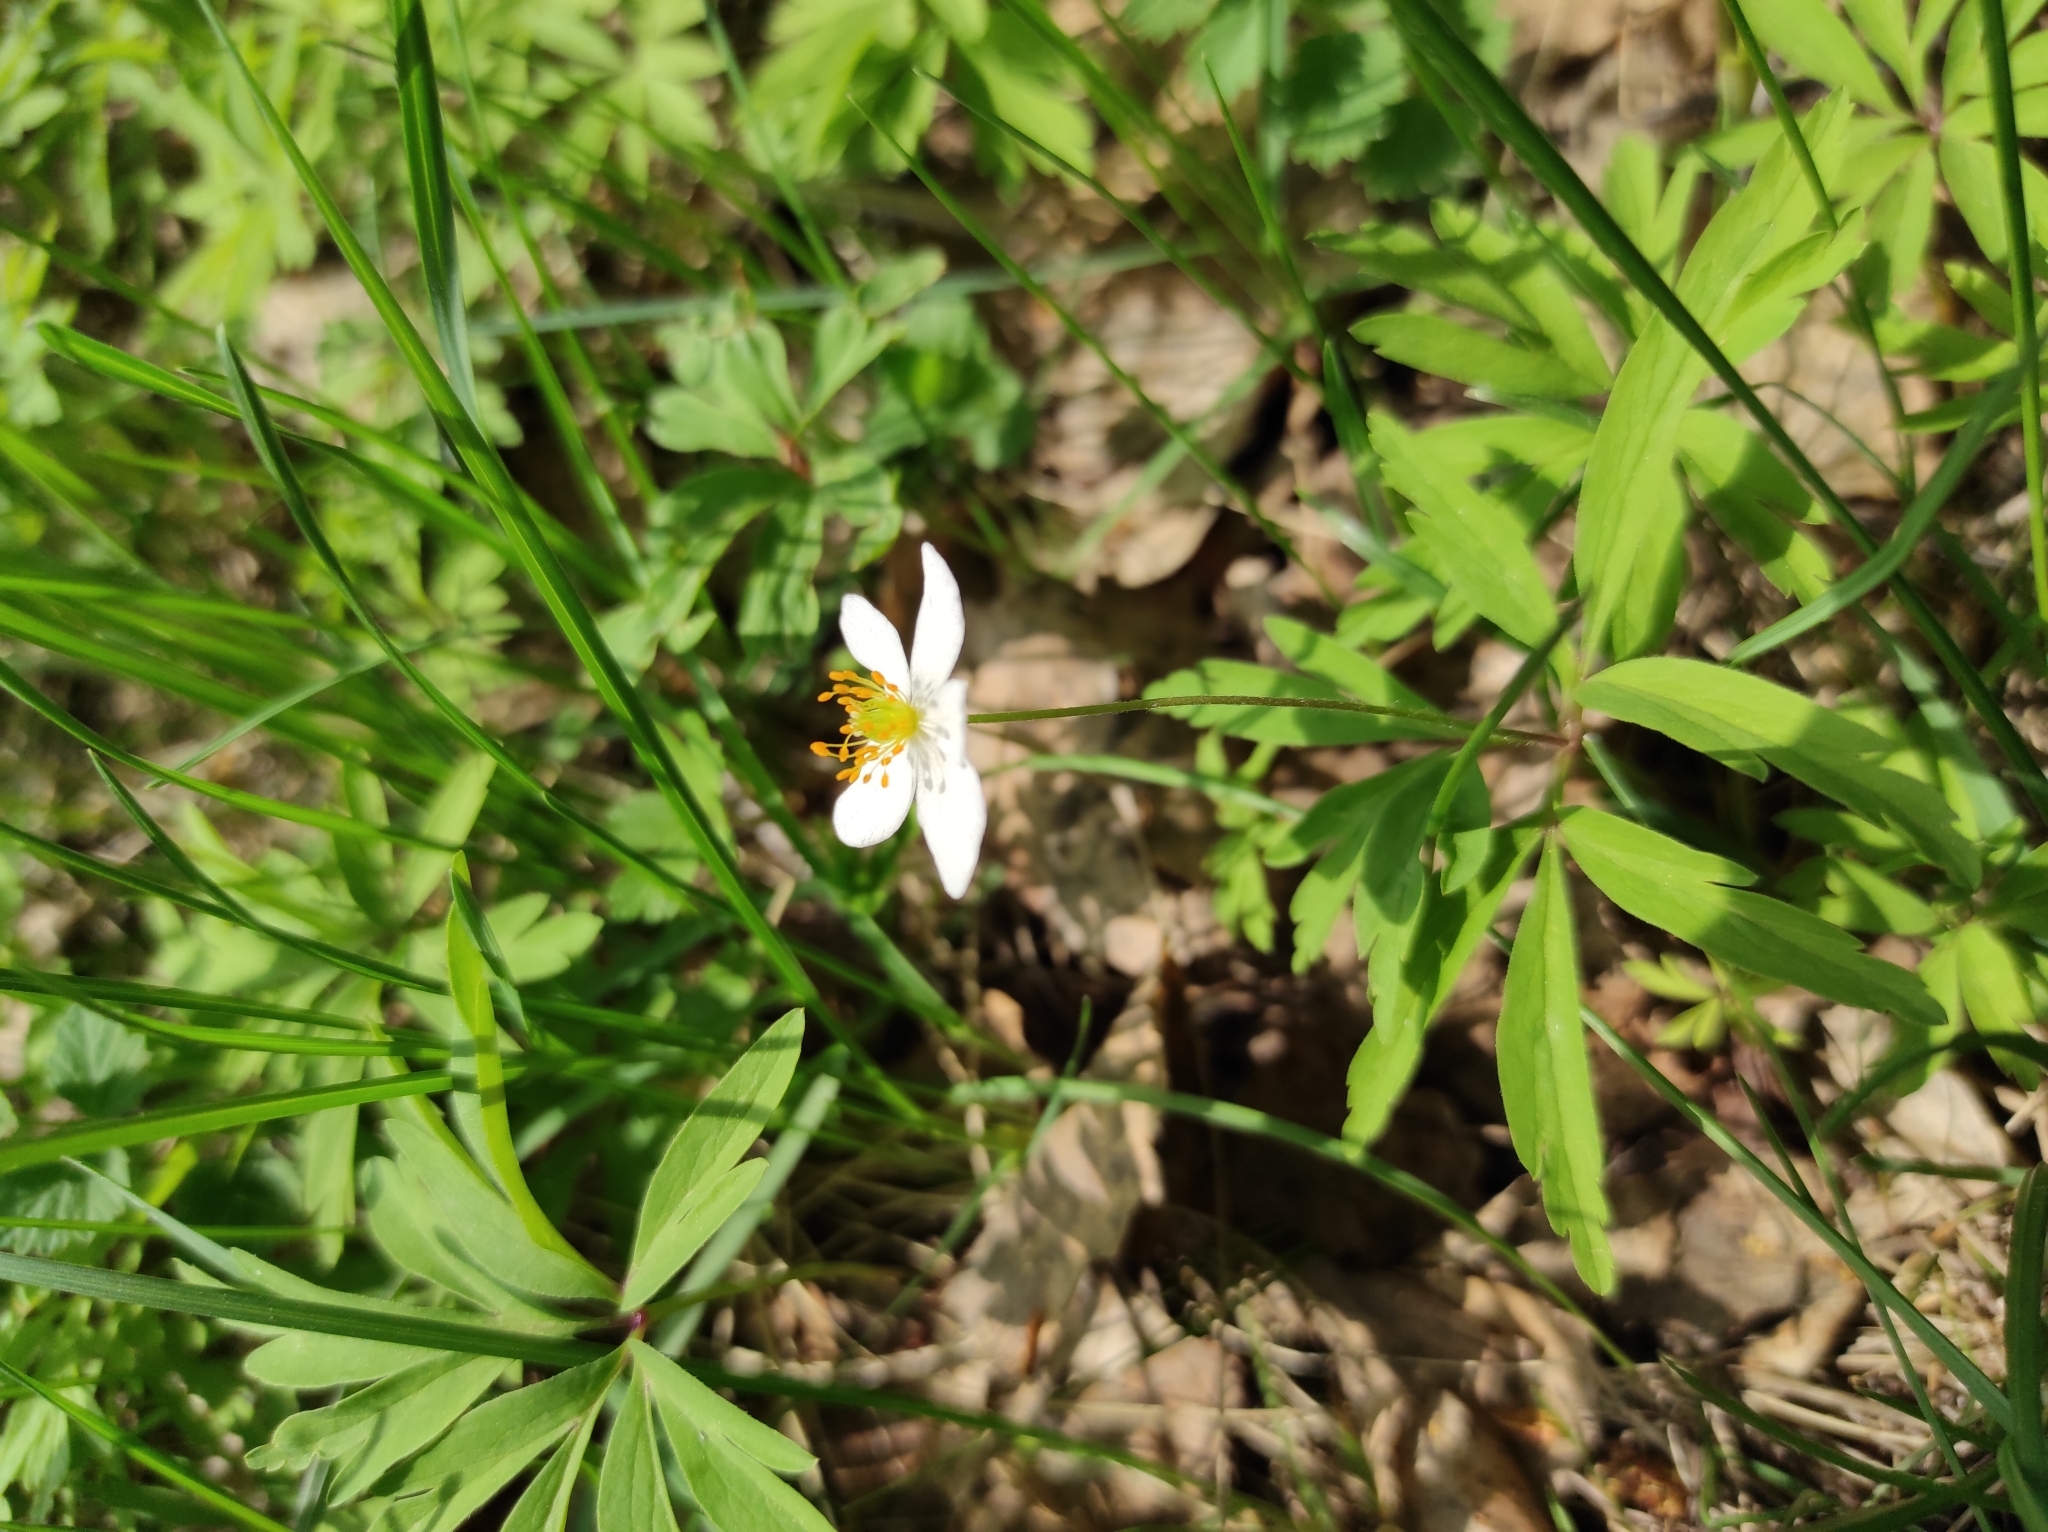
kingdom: Plantae
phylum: Tracheophyta
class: Magnoliopsida
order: Ranunculales
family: Ranunculaceae
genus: Anemone
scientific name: Anemone caerulea
